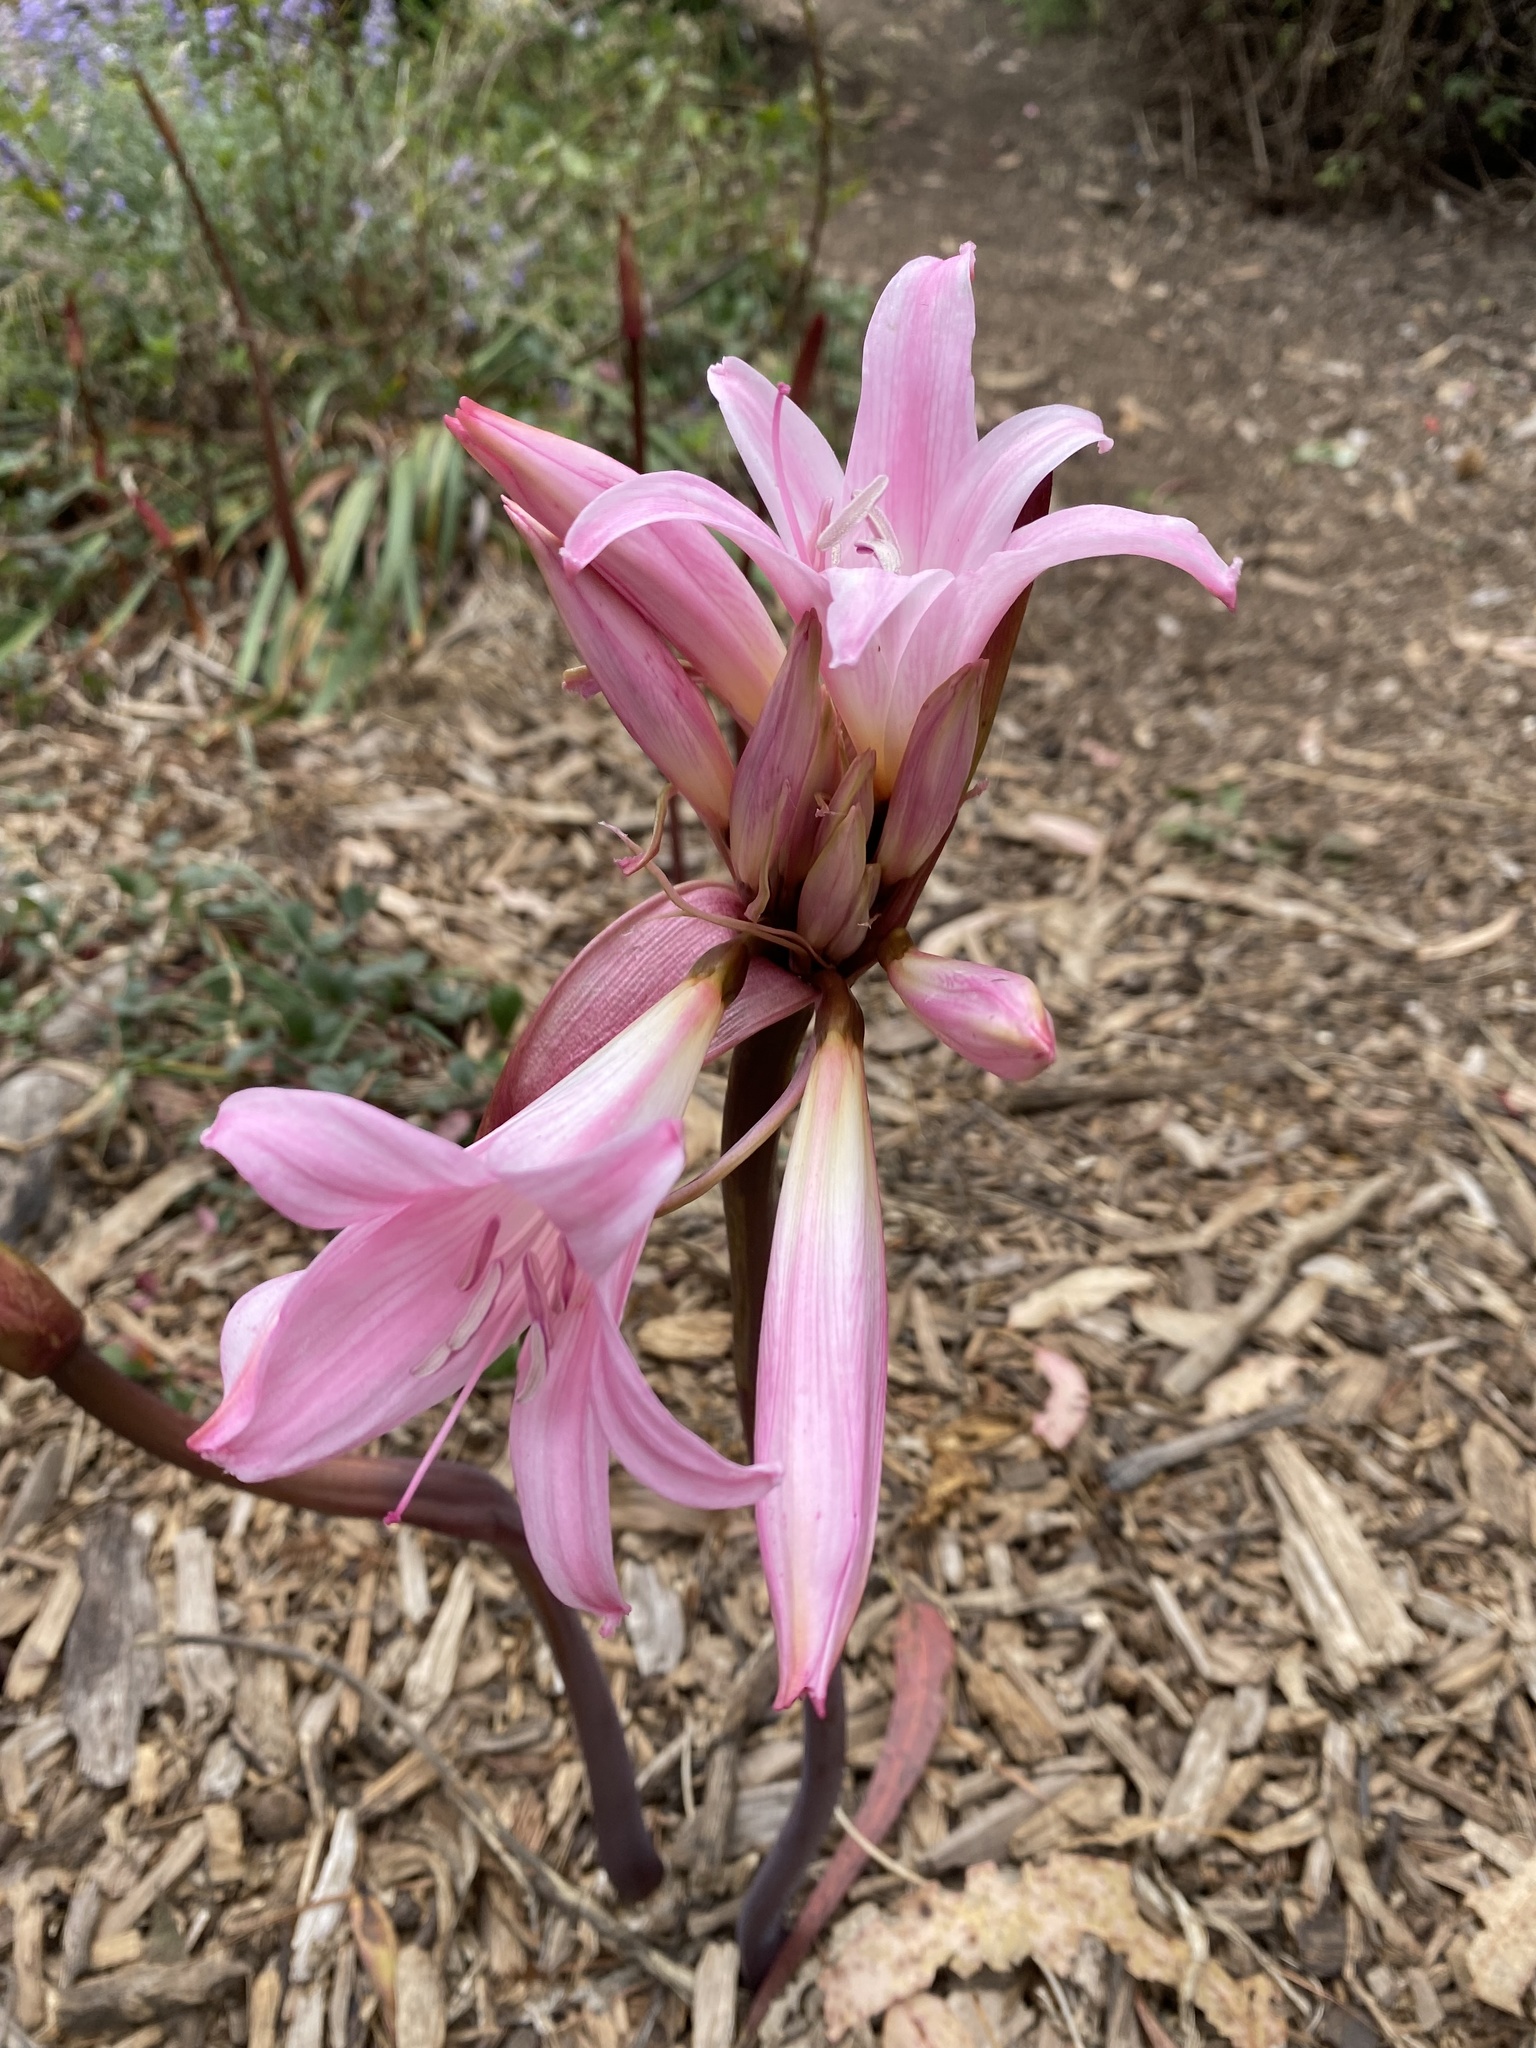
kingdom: Plantae
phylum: Tracheophyta
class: Liliopsida
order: Asparagales
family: Amaryllidaceae
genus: Amaryllis
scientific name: Amaryllis belladonna
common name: Jersey lily
